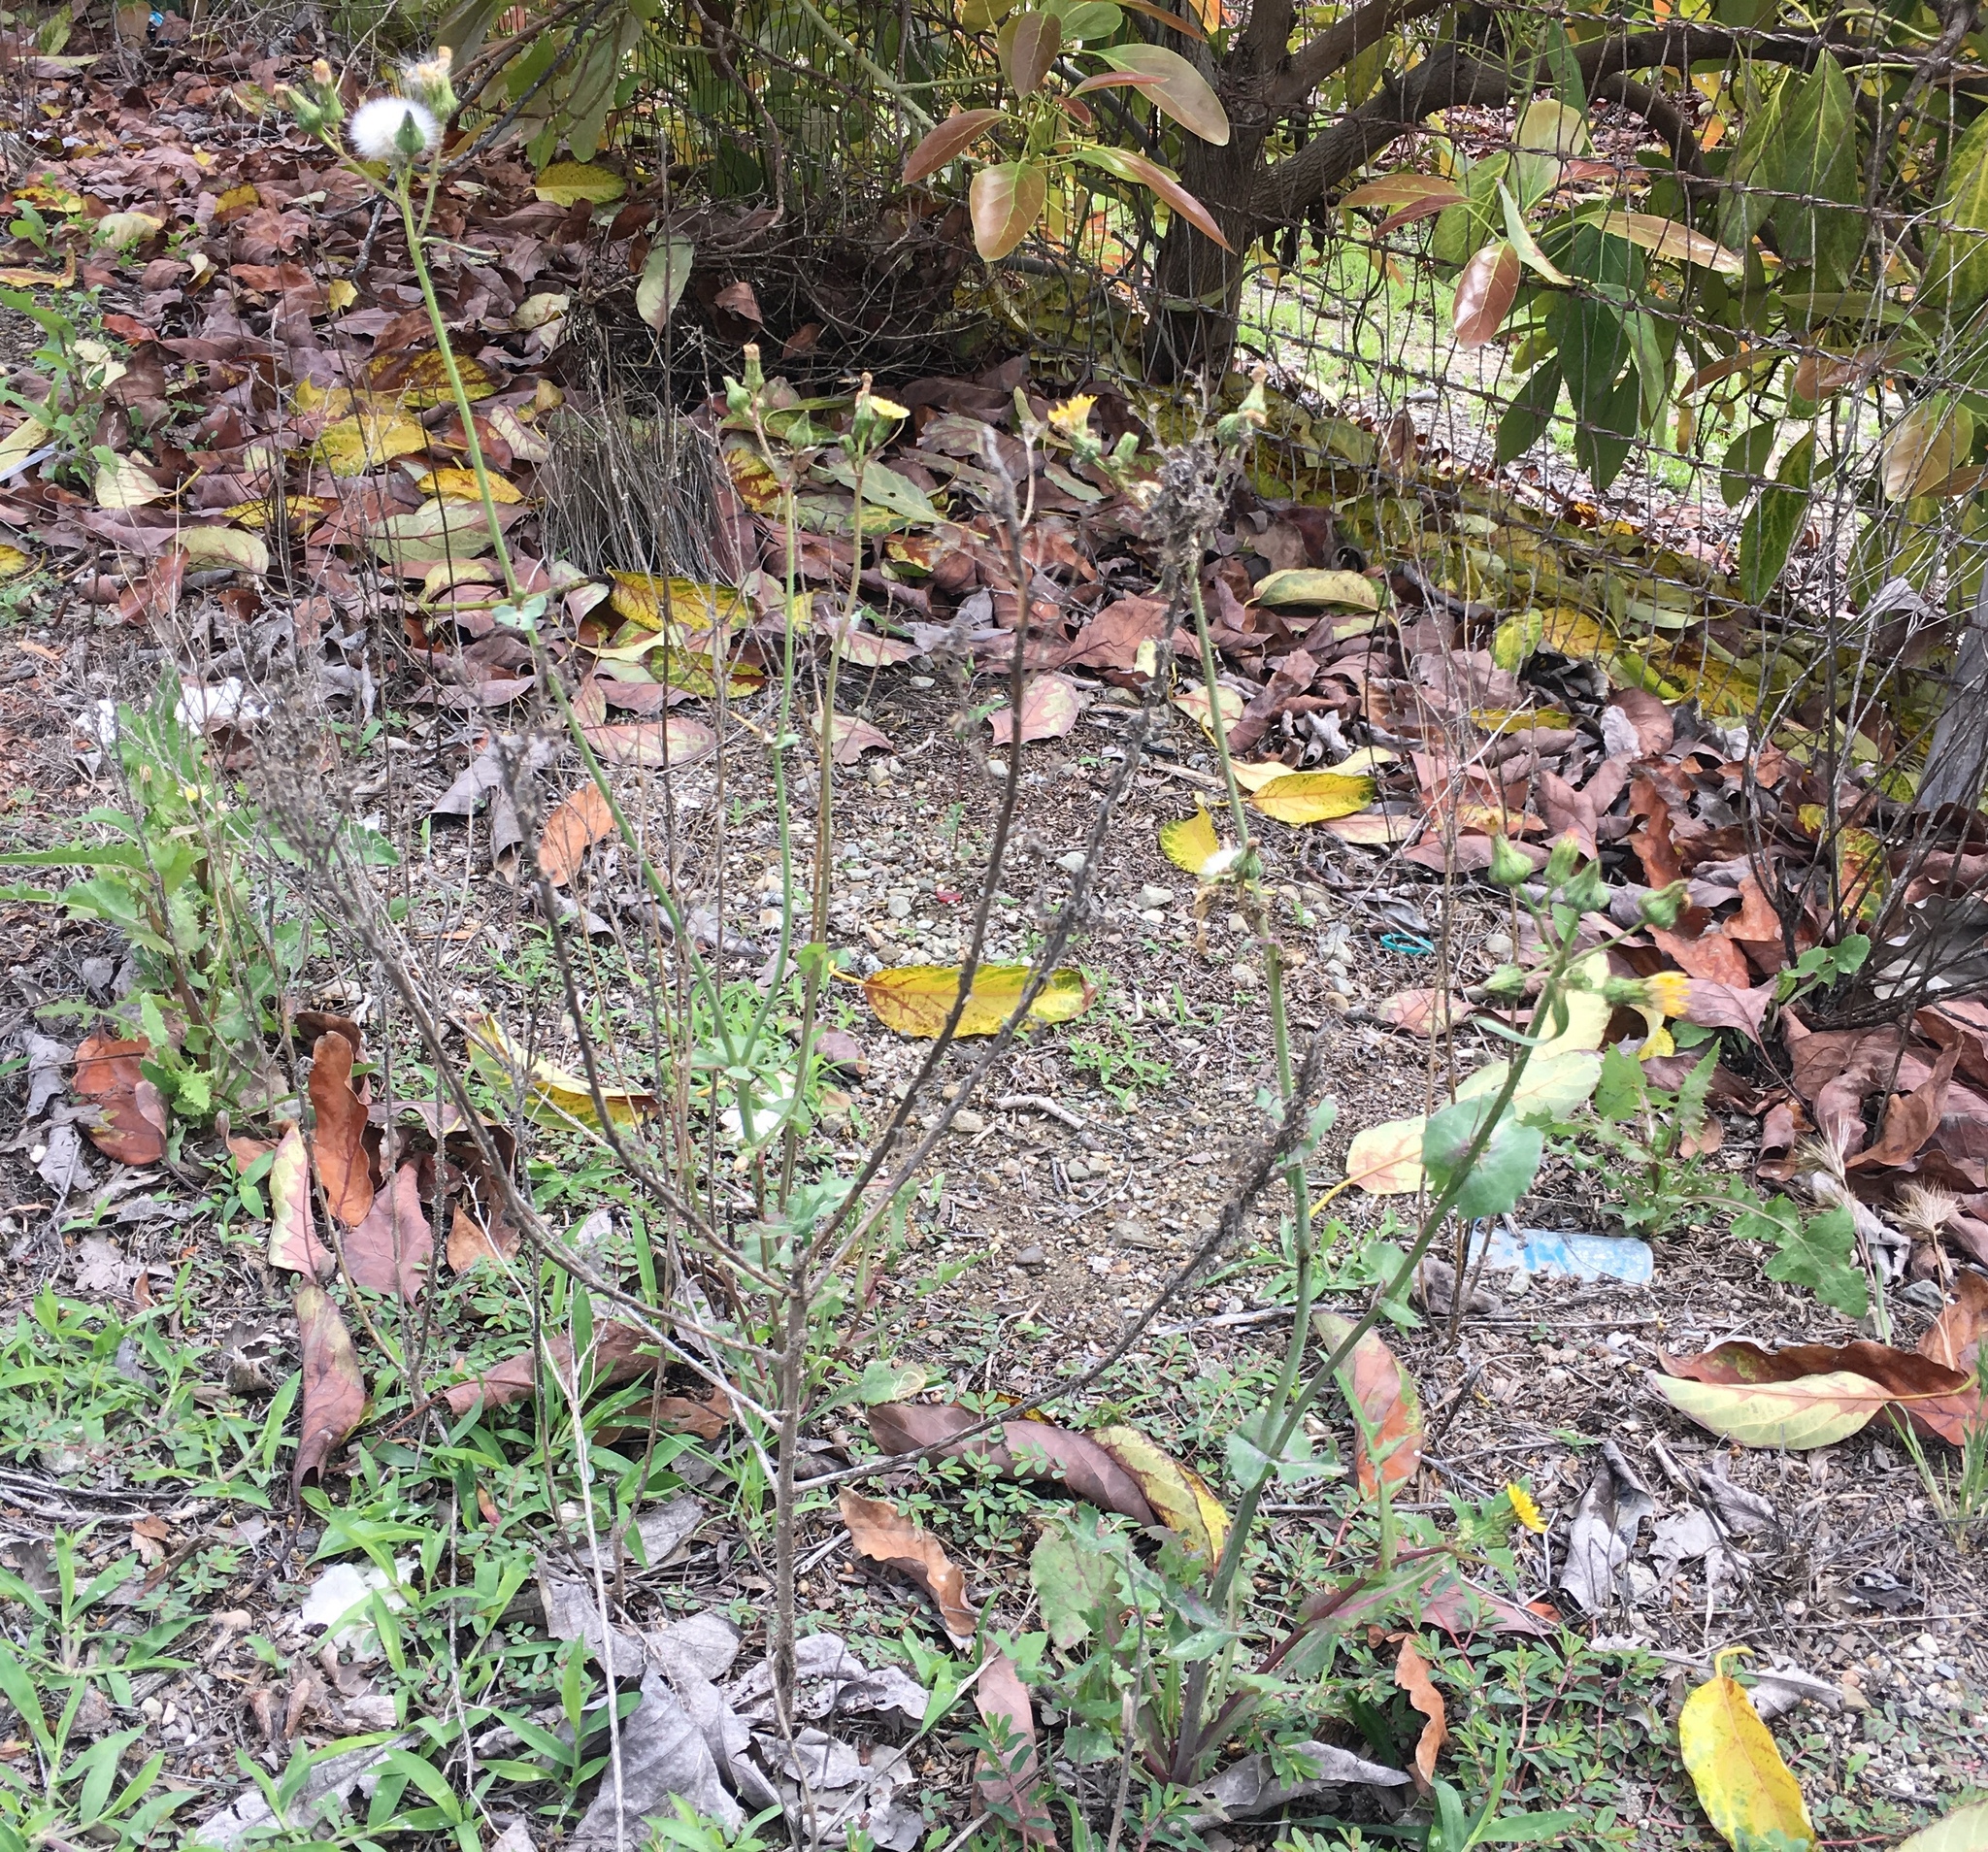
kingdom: Plantae
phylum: Tracheophyta
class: Magnoliopsida
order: Asterales
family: Asteraceae
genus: Sonchus
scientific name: Sonchus oleraceus
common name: Common sowthistle
